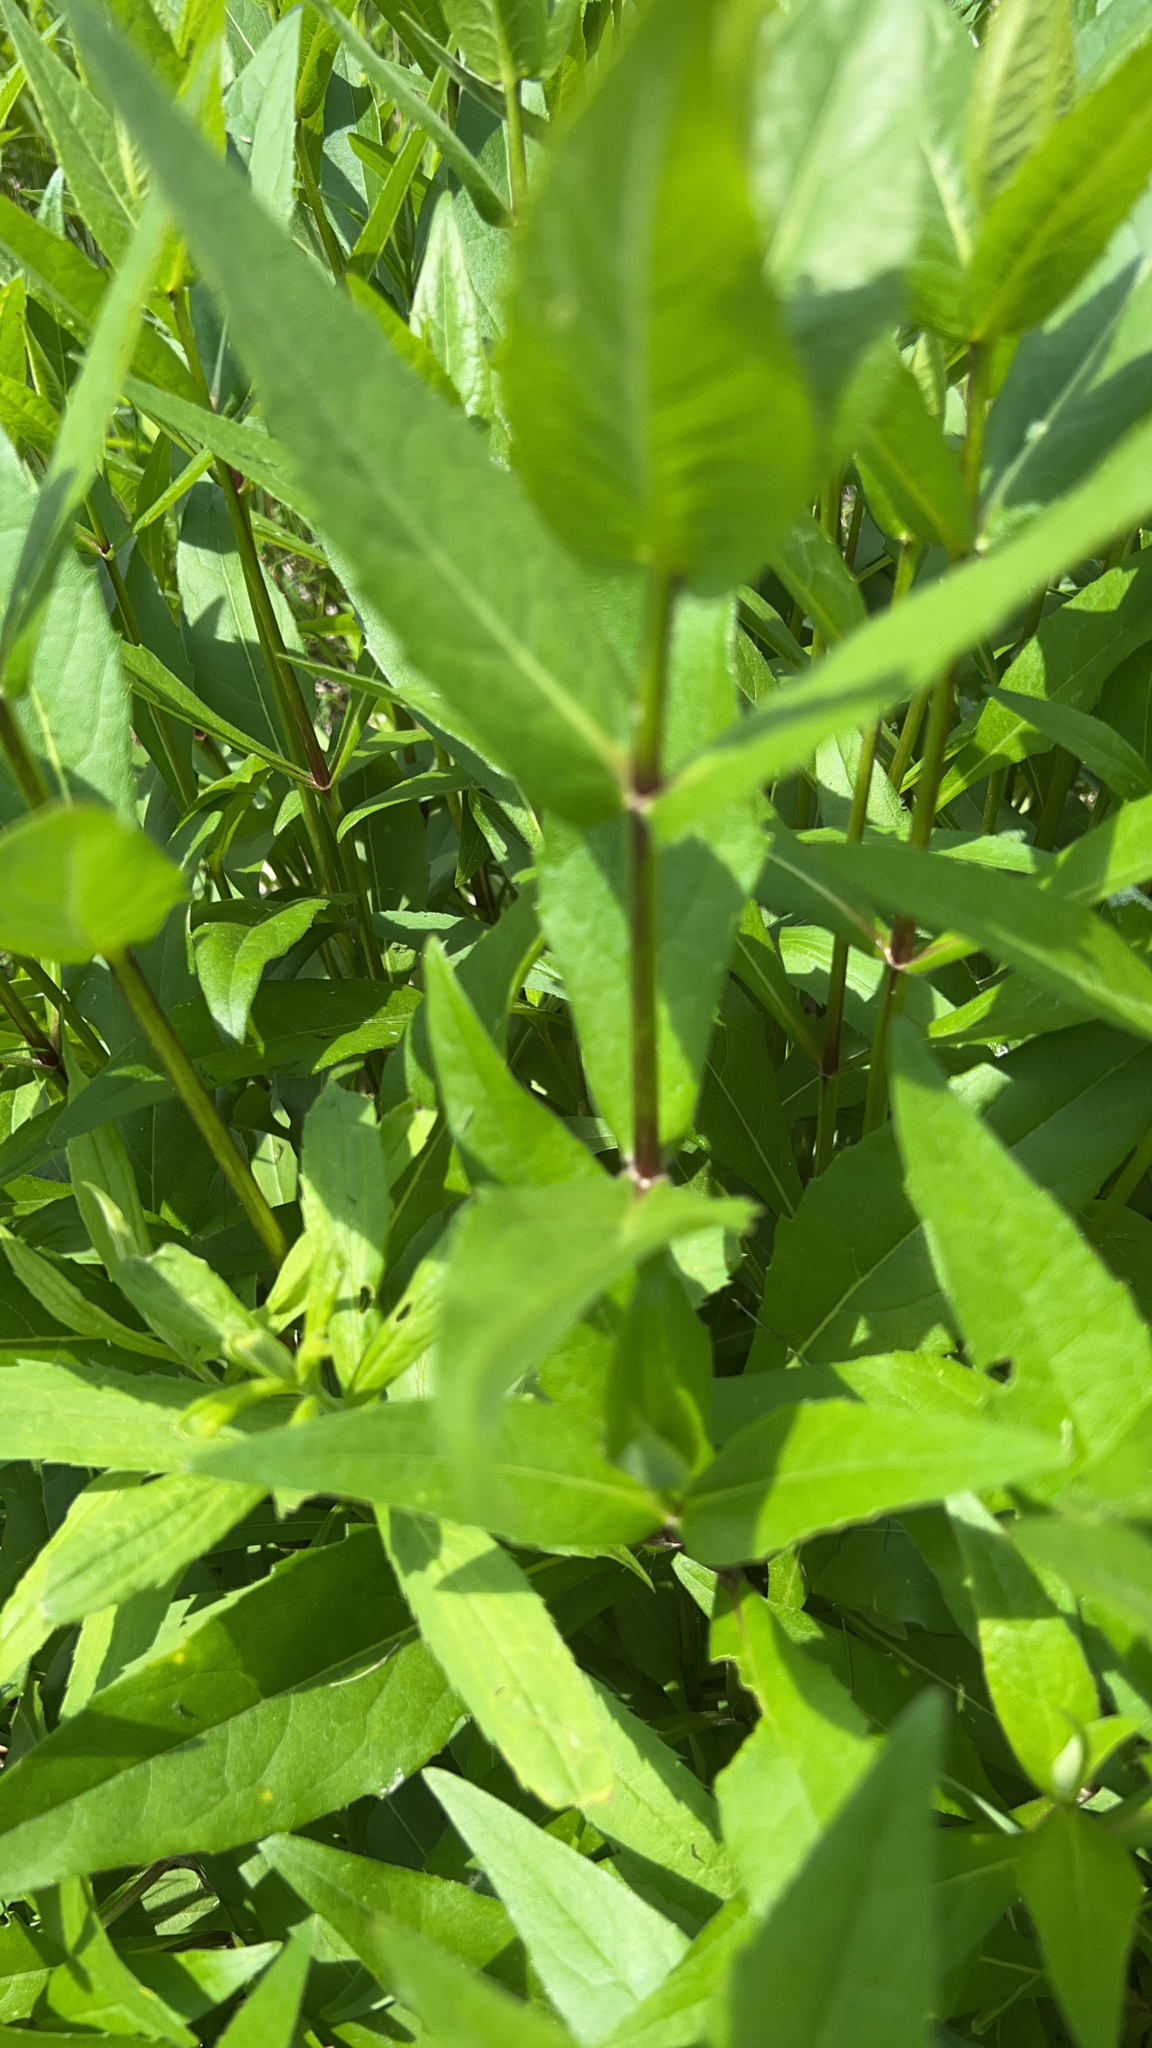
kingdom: Plantae
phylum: Tracheophyta
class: Magnoliopsida
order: Asterales
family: Asteraceae
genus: Silphium
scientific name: Silphium integrifolium
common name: Whole-leaf rosinweed
